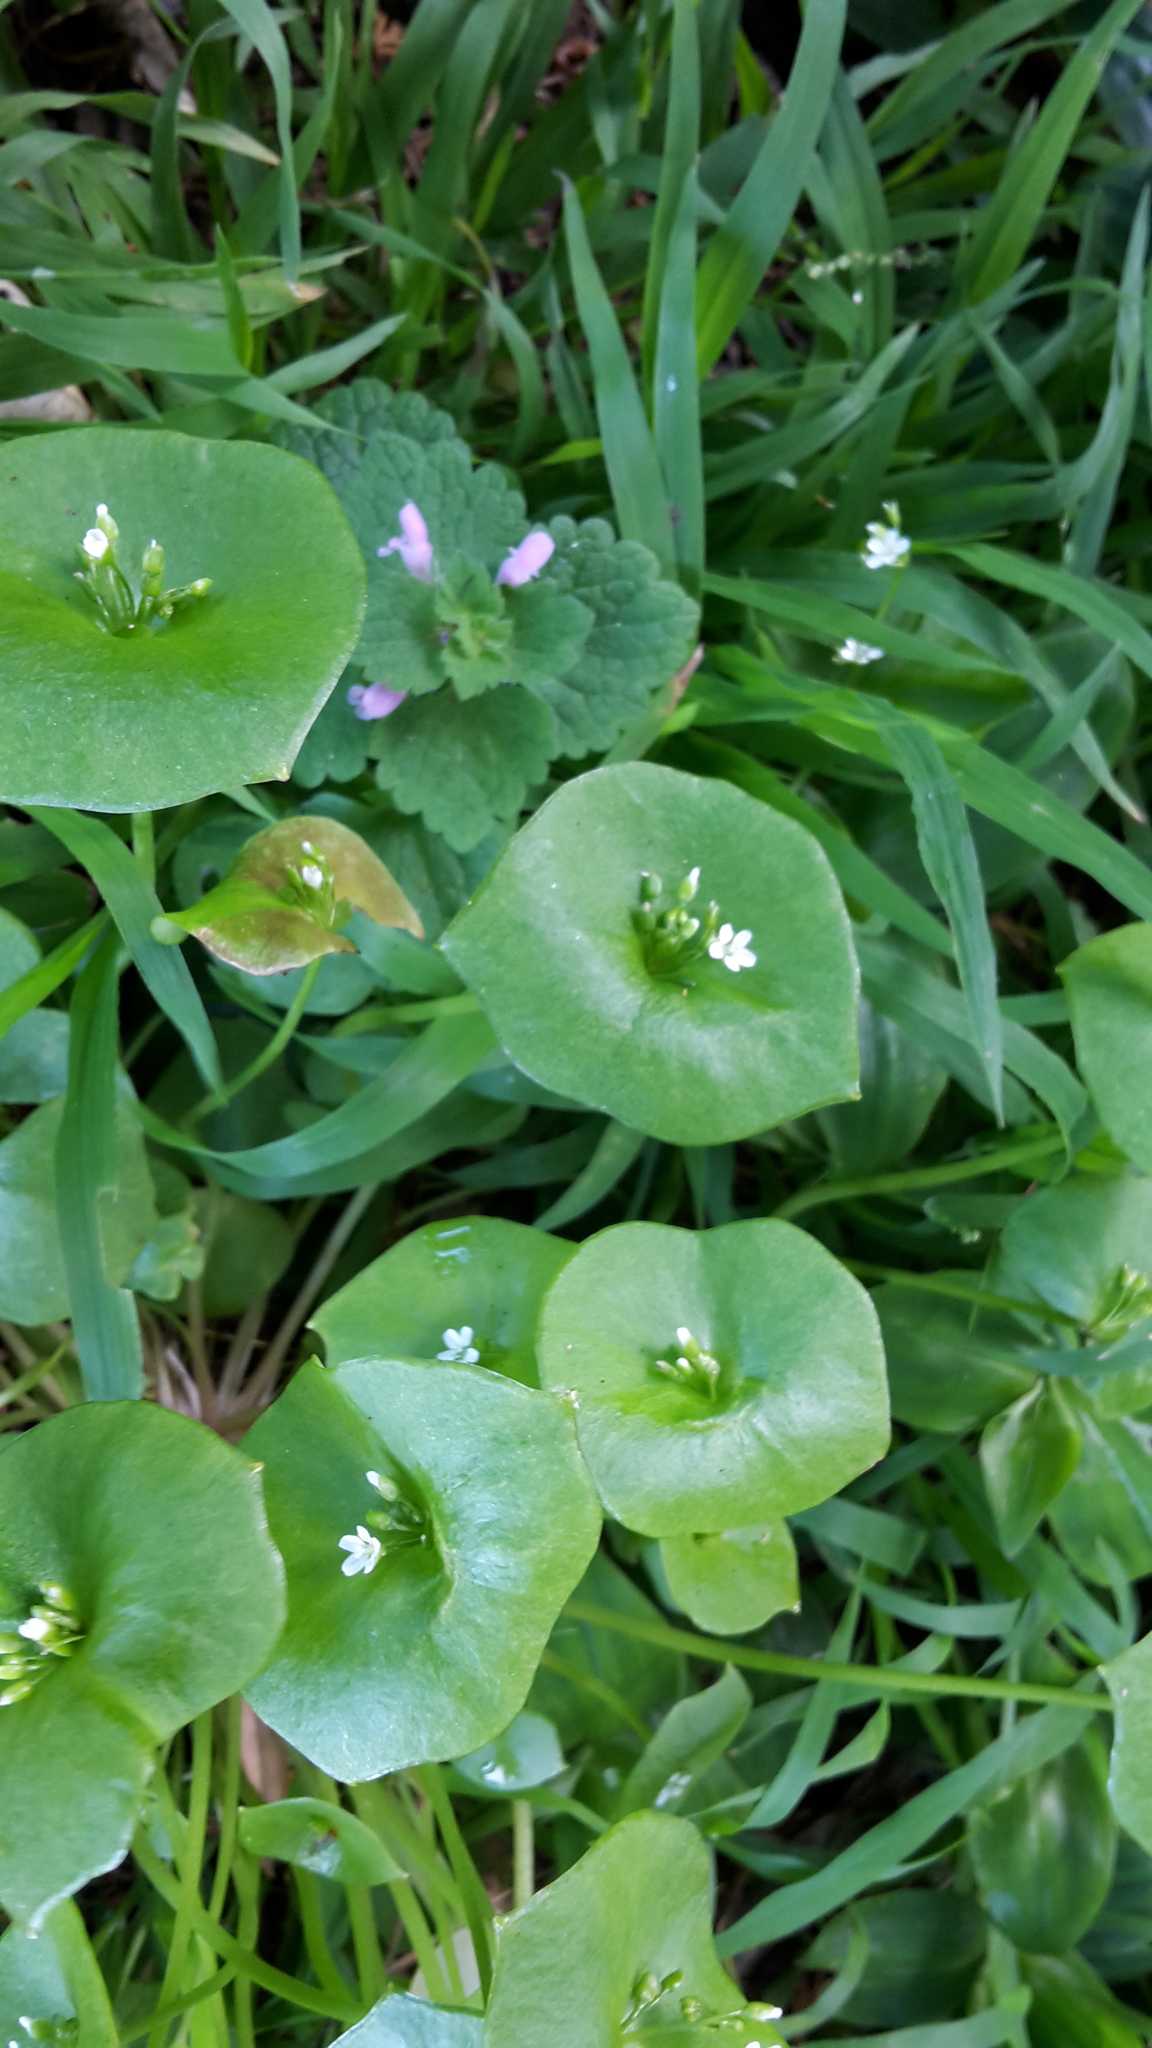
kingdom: Plantae
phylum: Tracheophyta
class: Magnoliopsida
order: Caryophyllales
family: Montiaceae
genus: Claytonia
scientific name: Claytonia perfoliata
